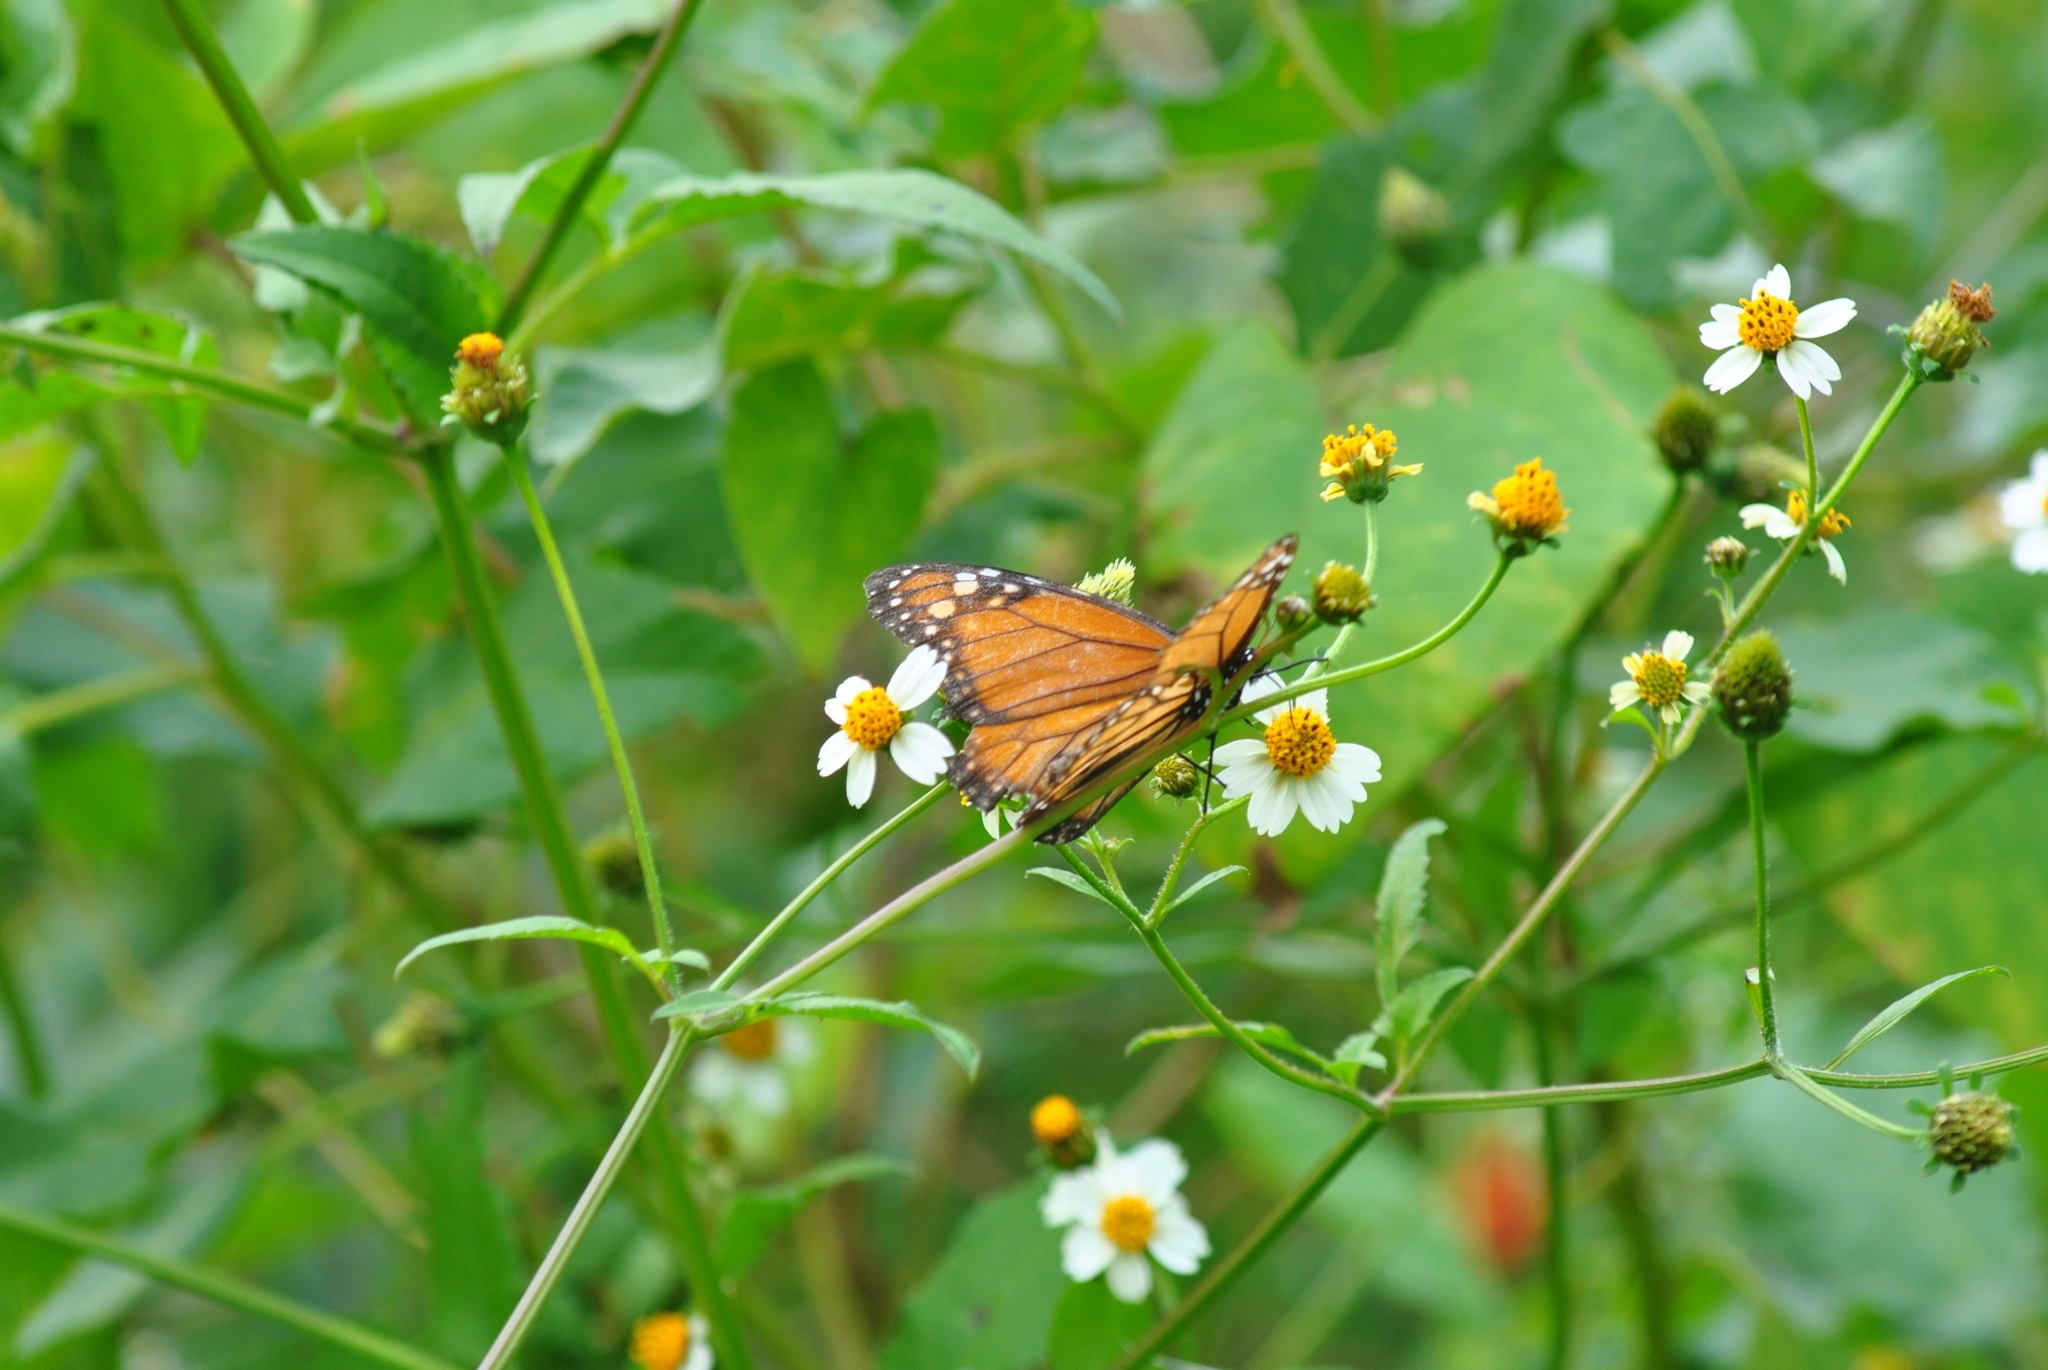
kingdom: Animalia
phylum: Arthropoda
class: Insecta
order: Lepidoptera
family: Nymphalidae
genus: Danaus
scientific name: Danaus erippus
